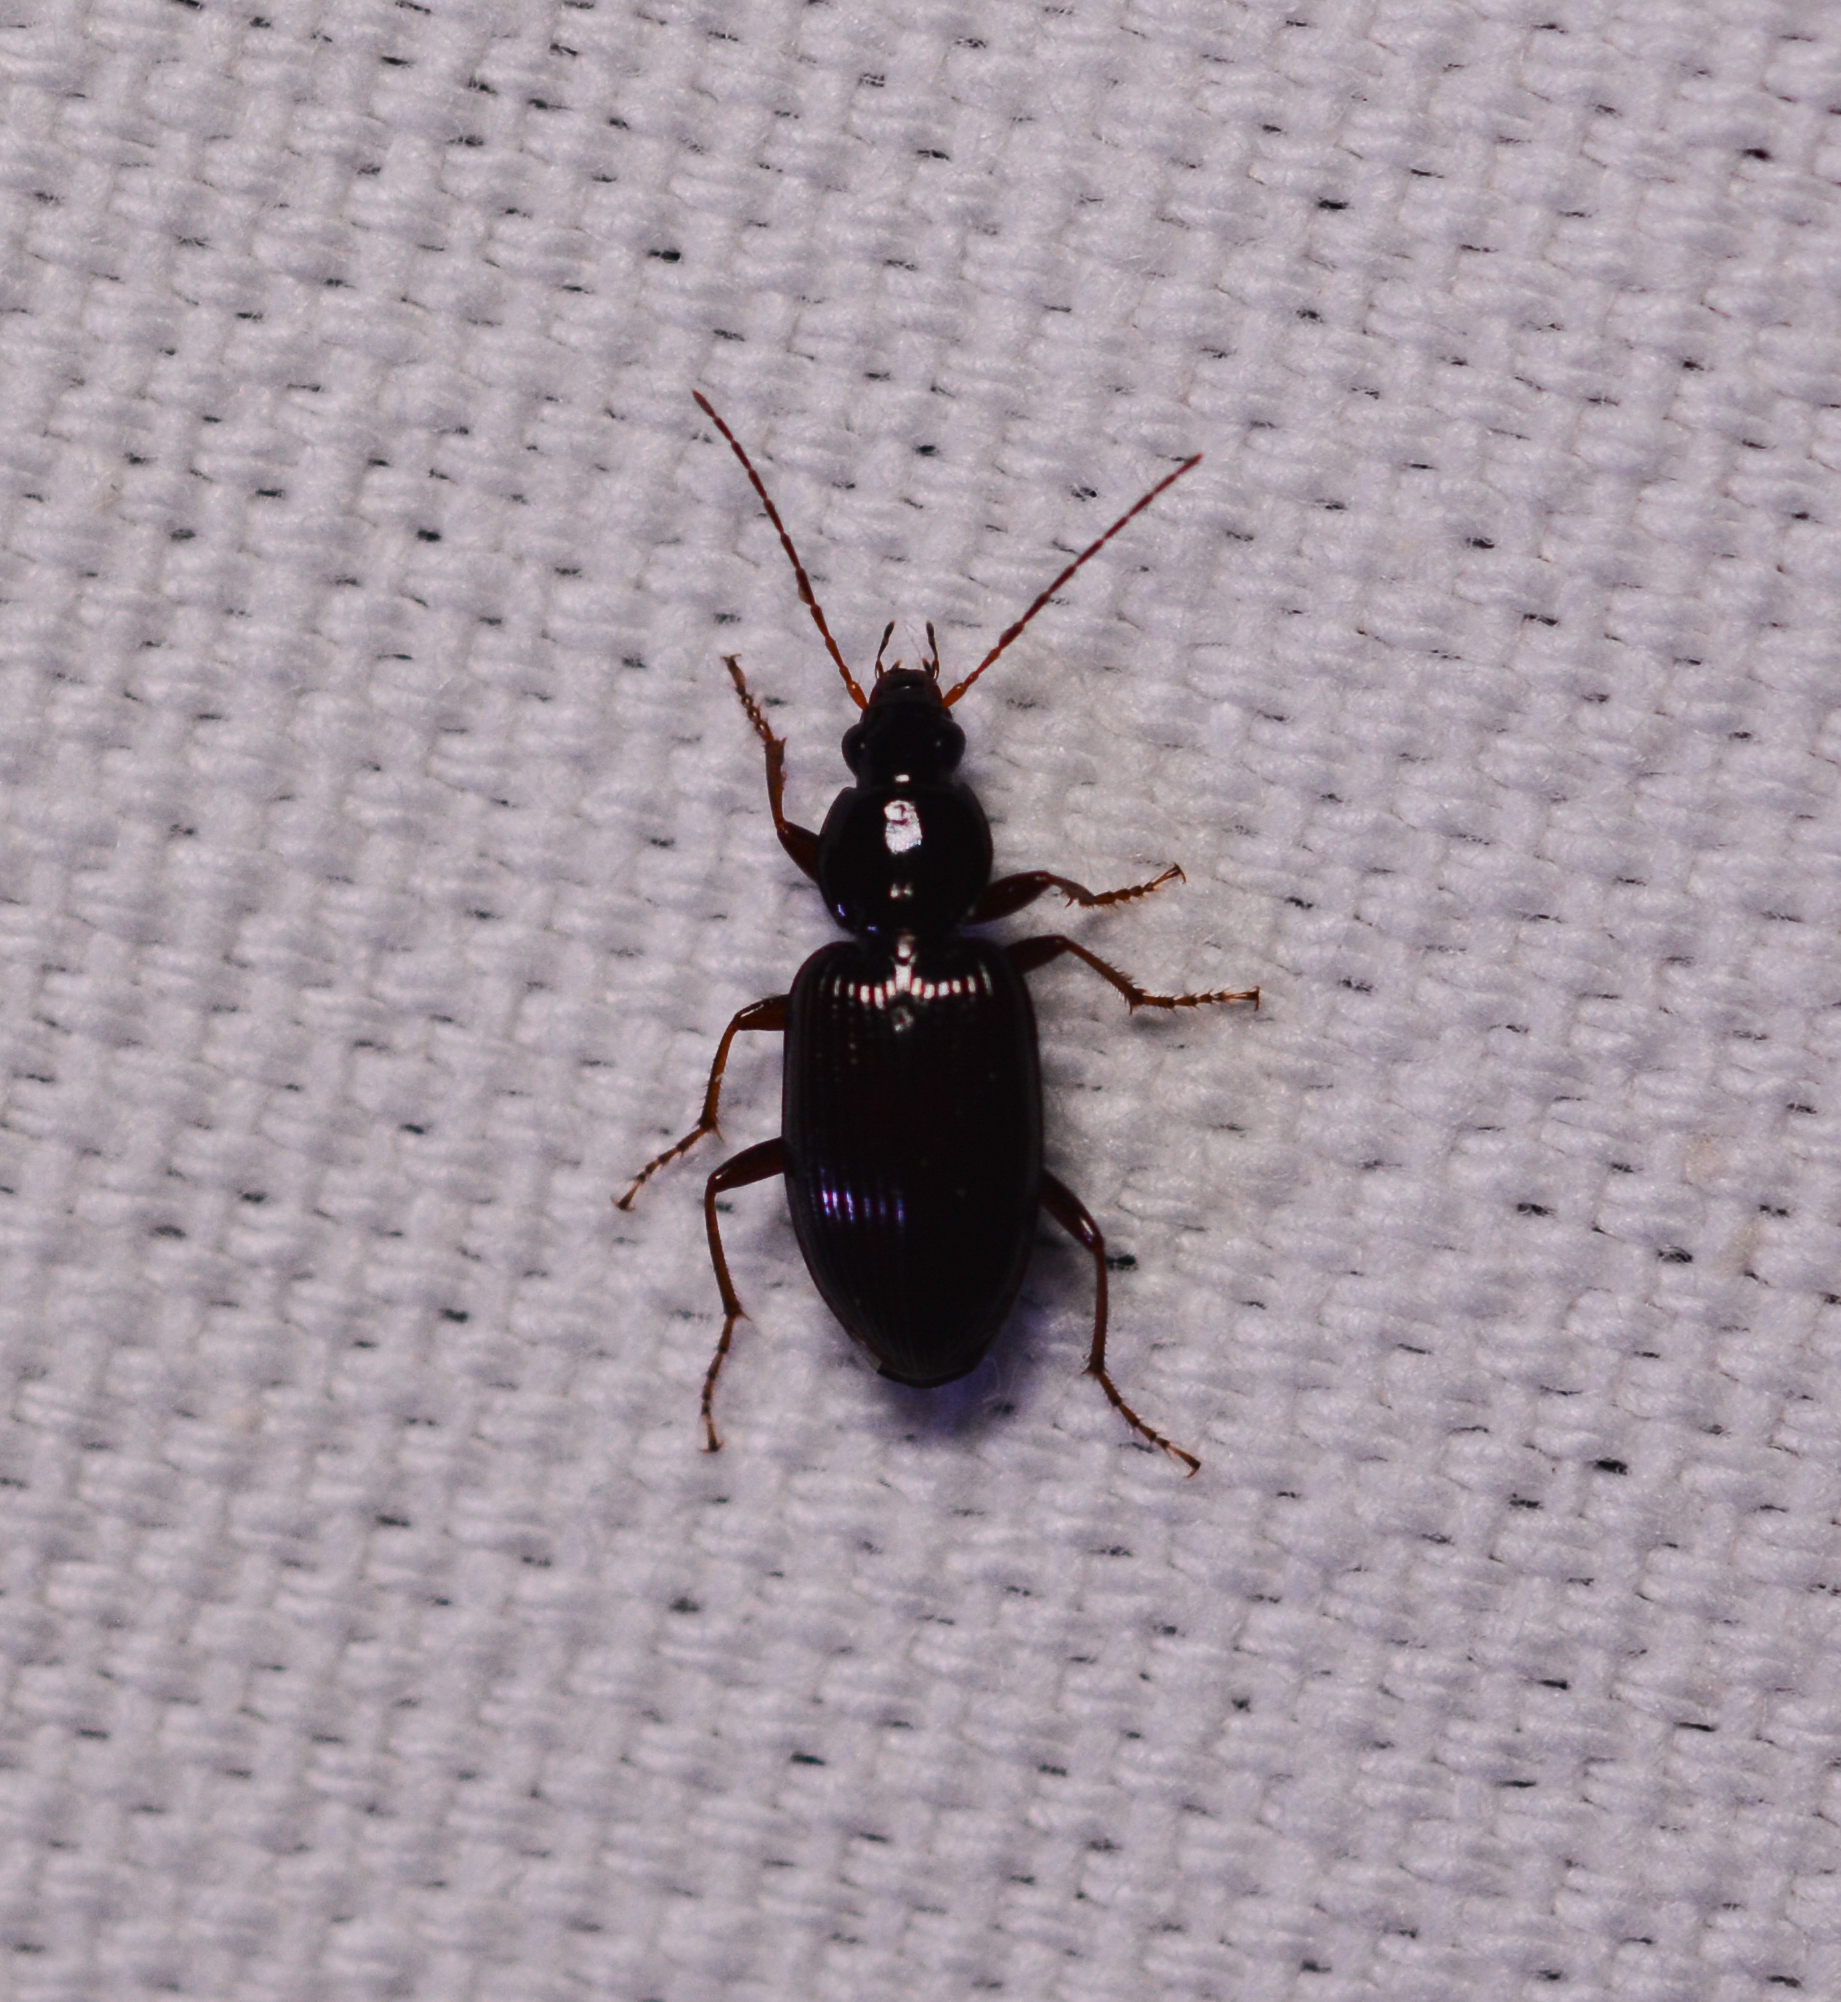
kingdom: Animalia
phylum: Arthropoda
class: Insecta
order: Coleoptera
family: Carabidae
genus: Agonum
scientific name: Agonum punctiforme
